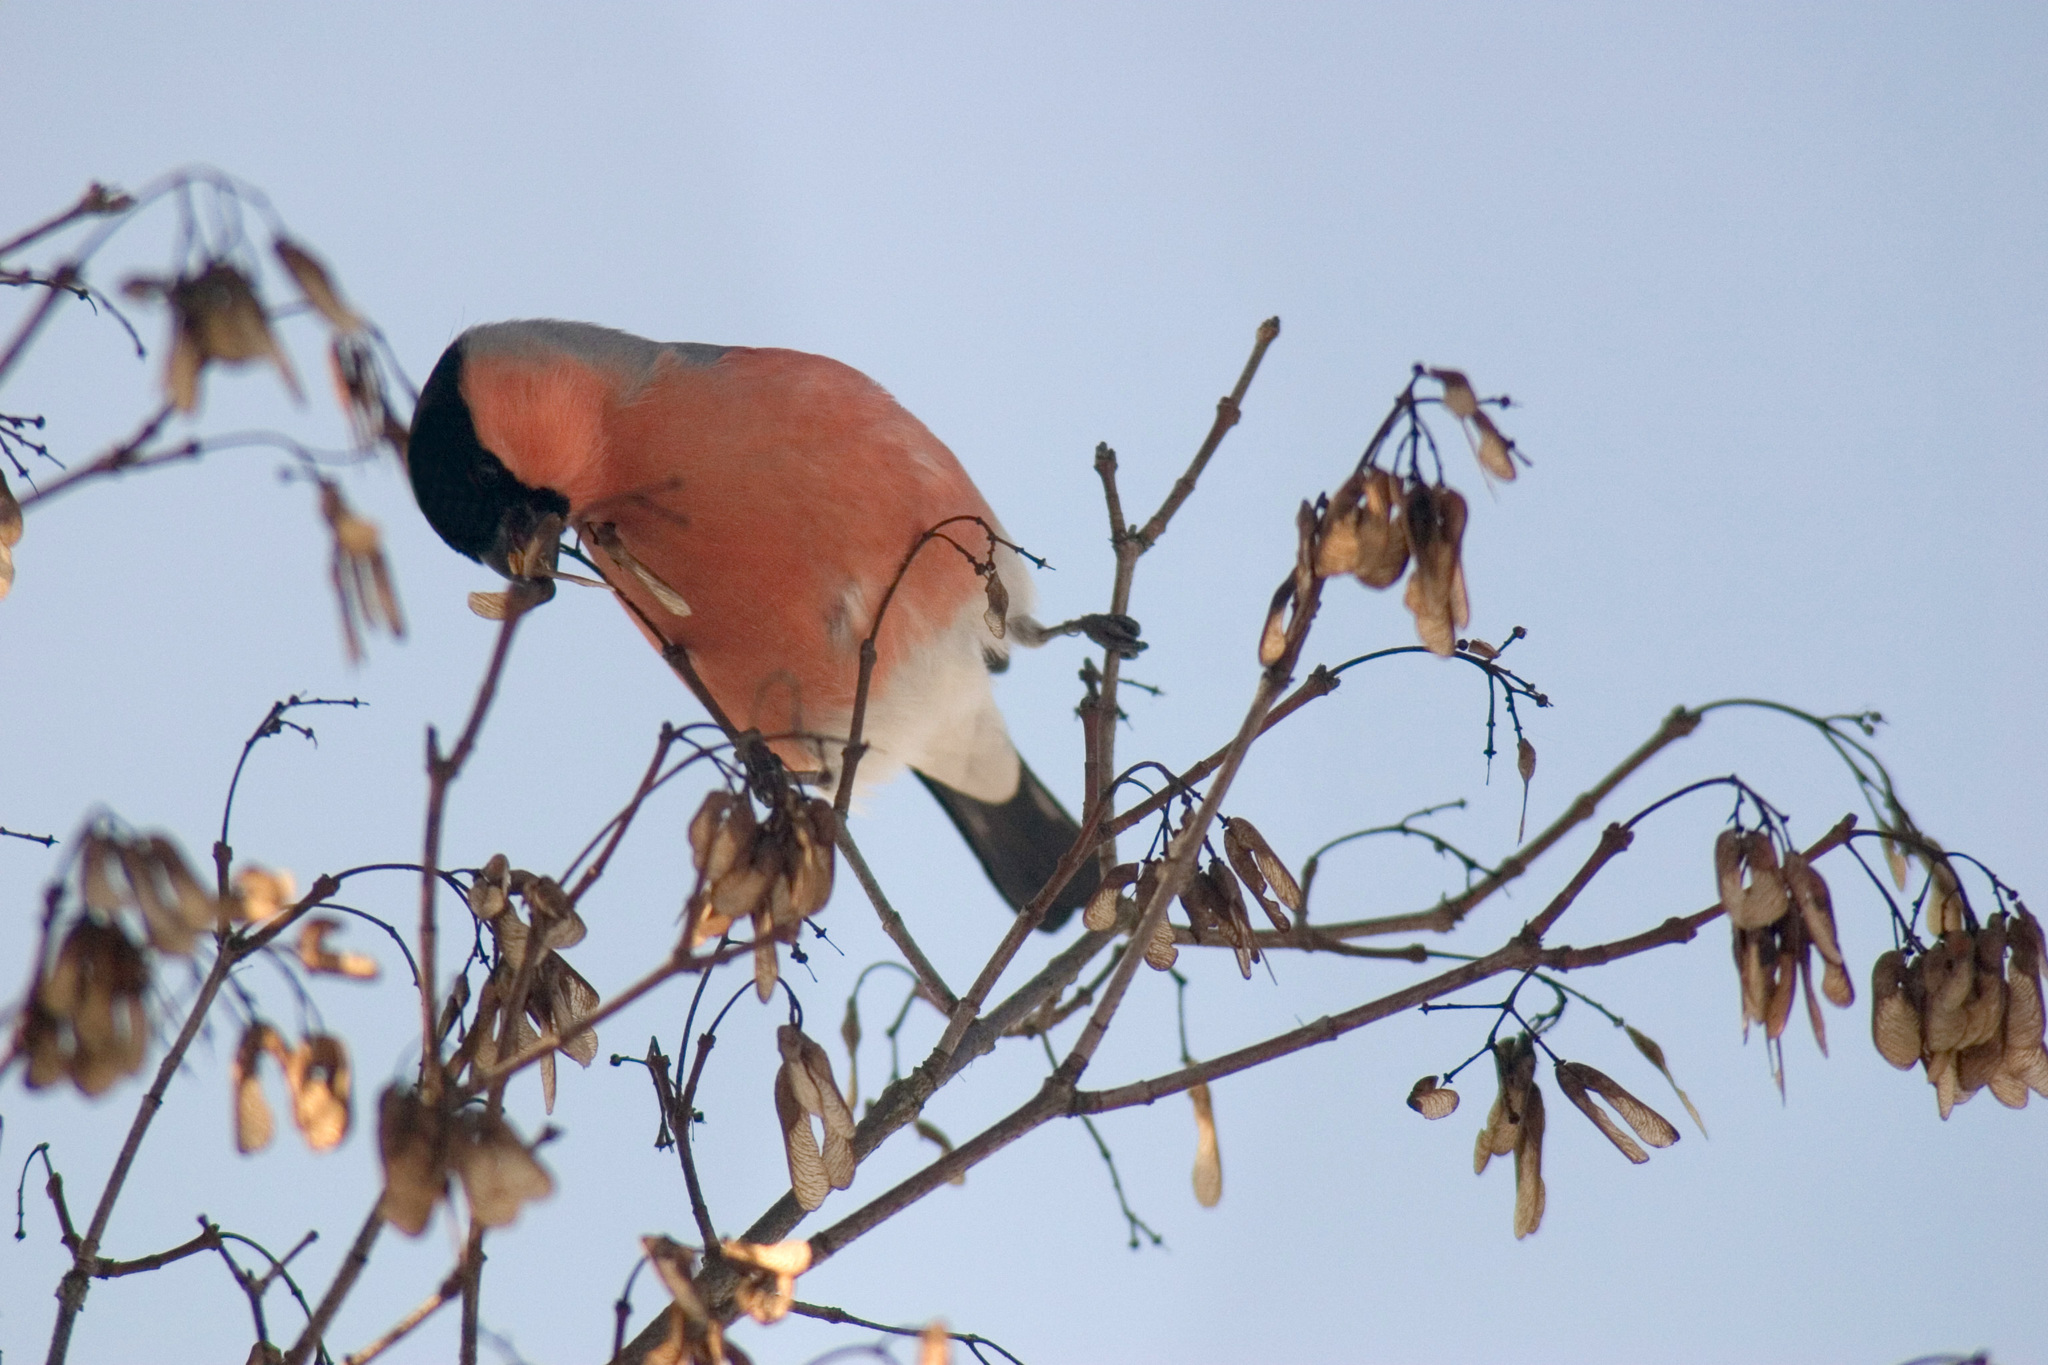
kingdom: Animalia
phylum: Chordata
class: Aves
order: Passeriformes
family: Fringillidae
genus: Pyrrhula
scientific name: Pyrrhula pyrrhula
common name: Eurasian bullfinch
